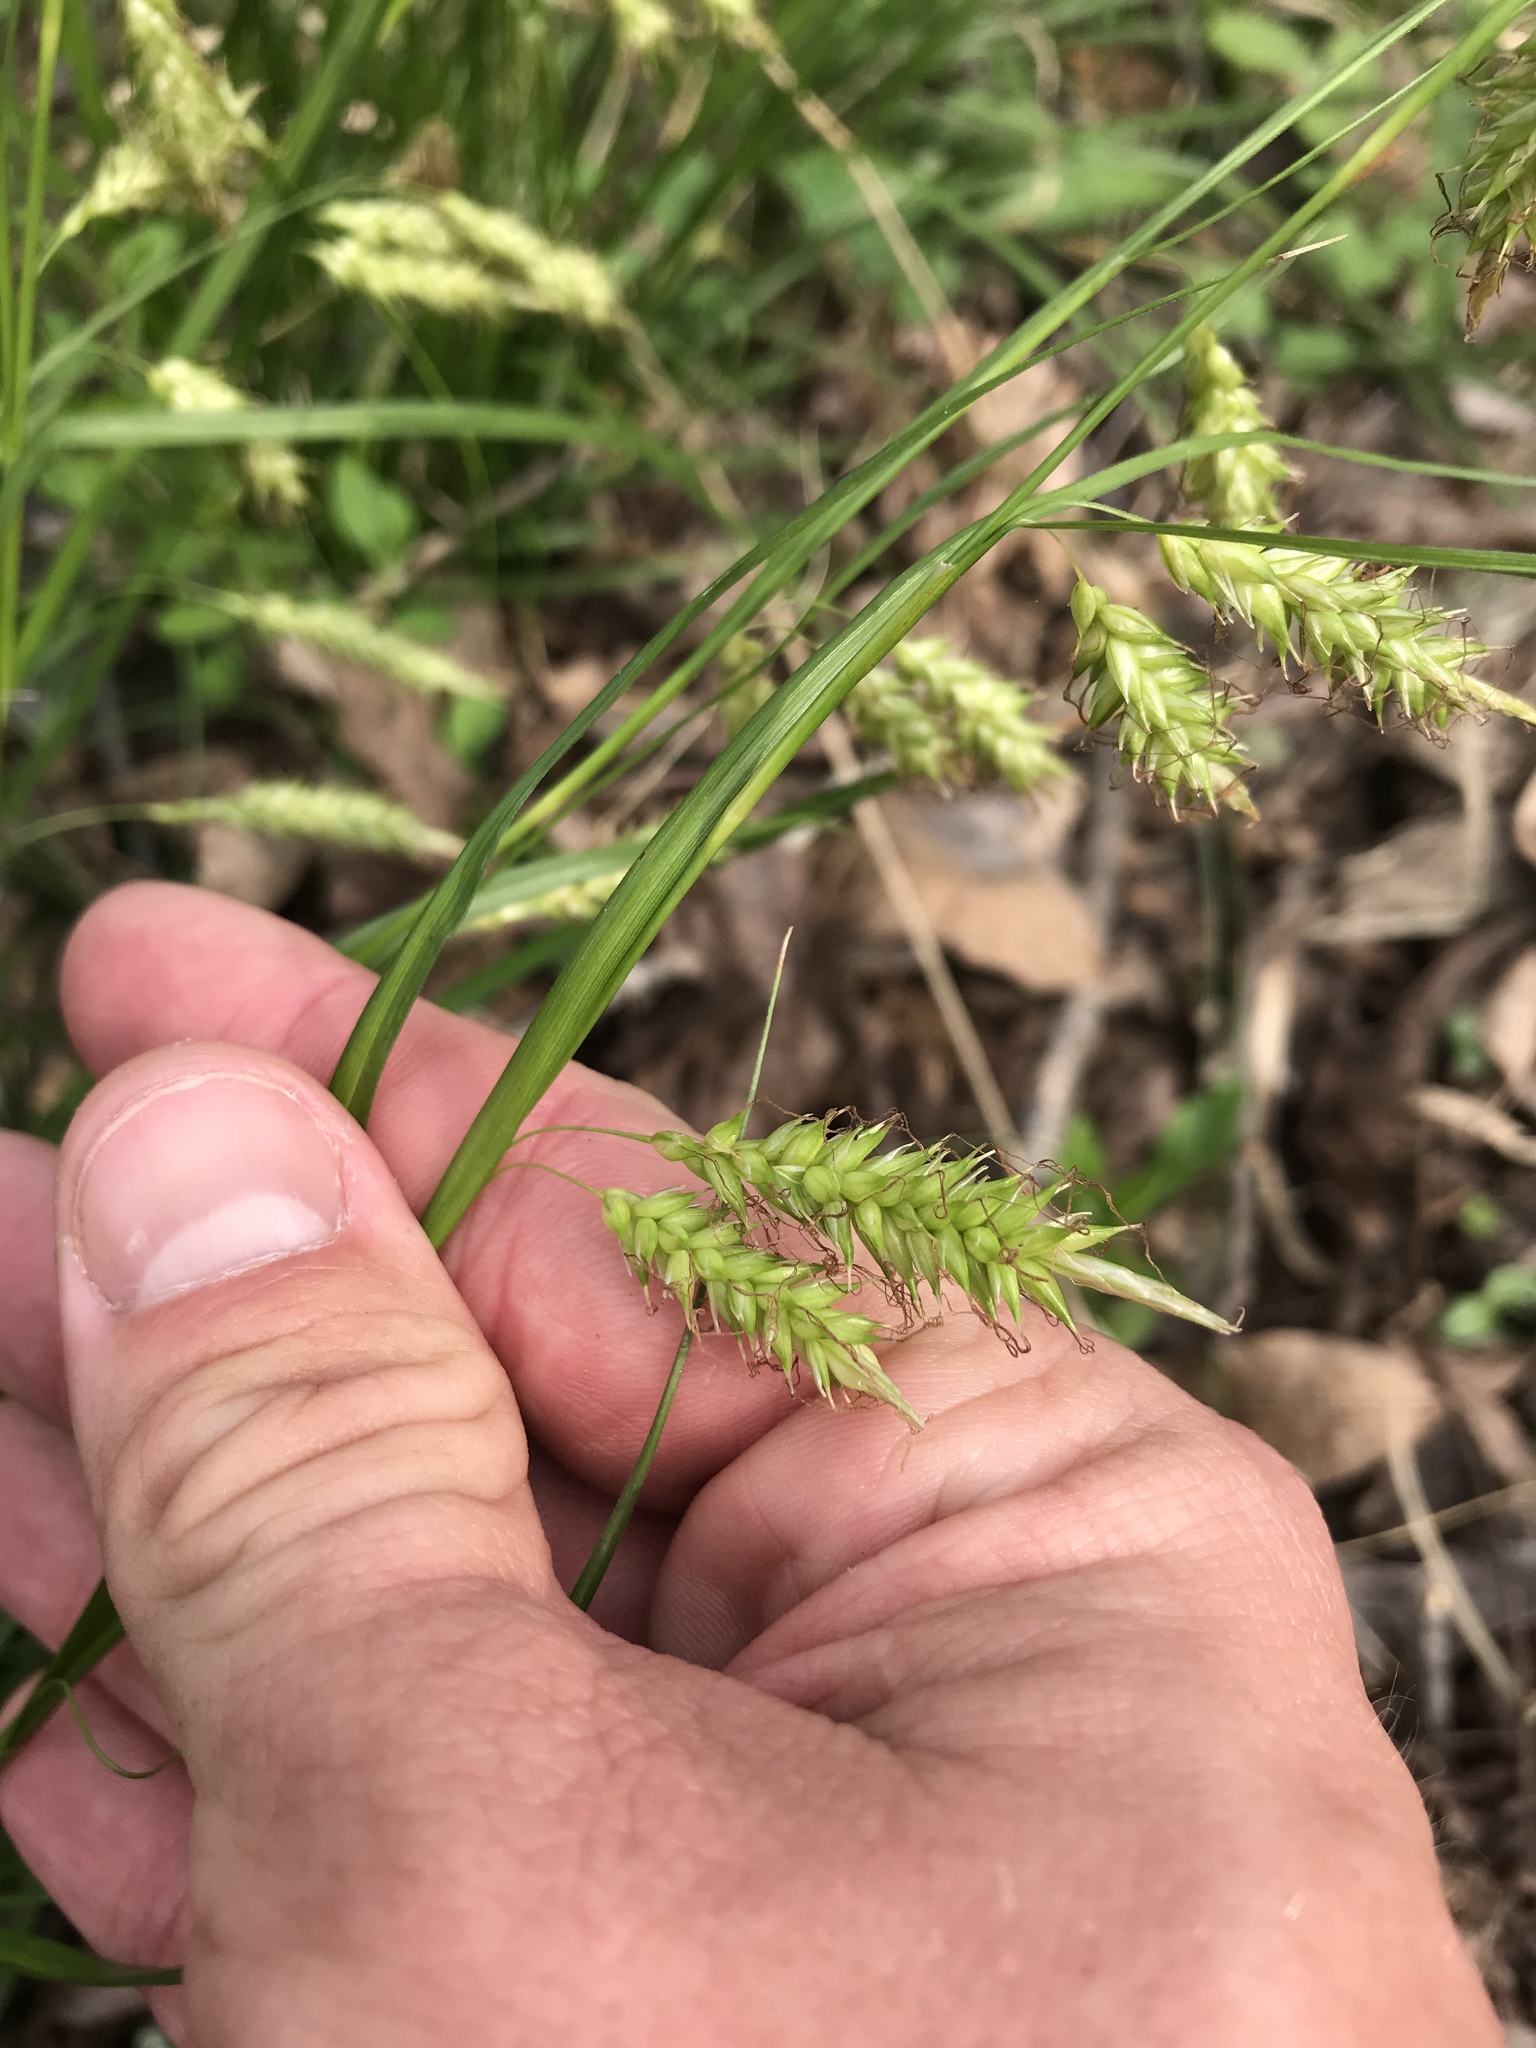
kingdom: Plantae
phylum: Tracheophyta
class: Liliopsida
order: Poales
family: Cyperaceae
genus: Carex
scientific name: Carex cherokeensis
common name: Cherokee sedge
